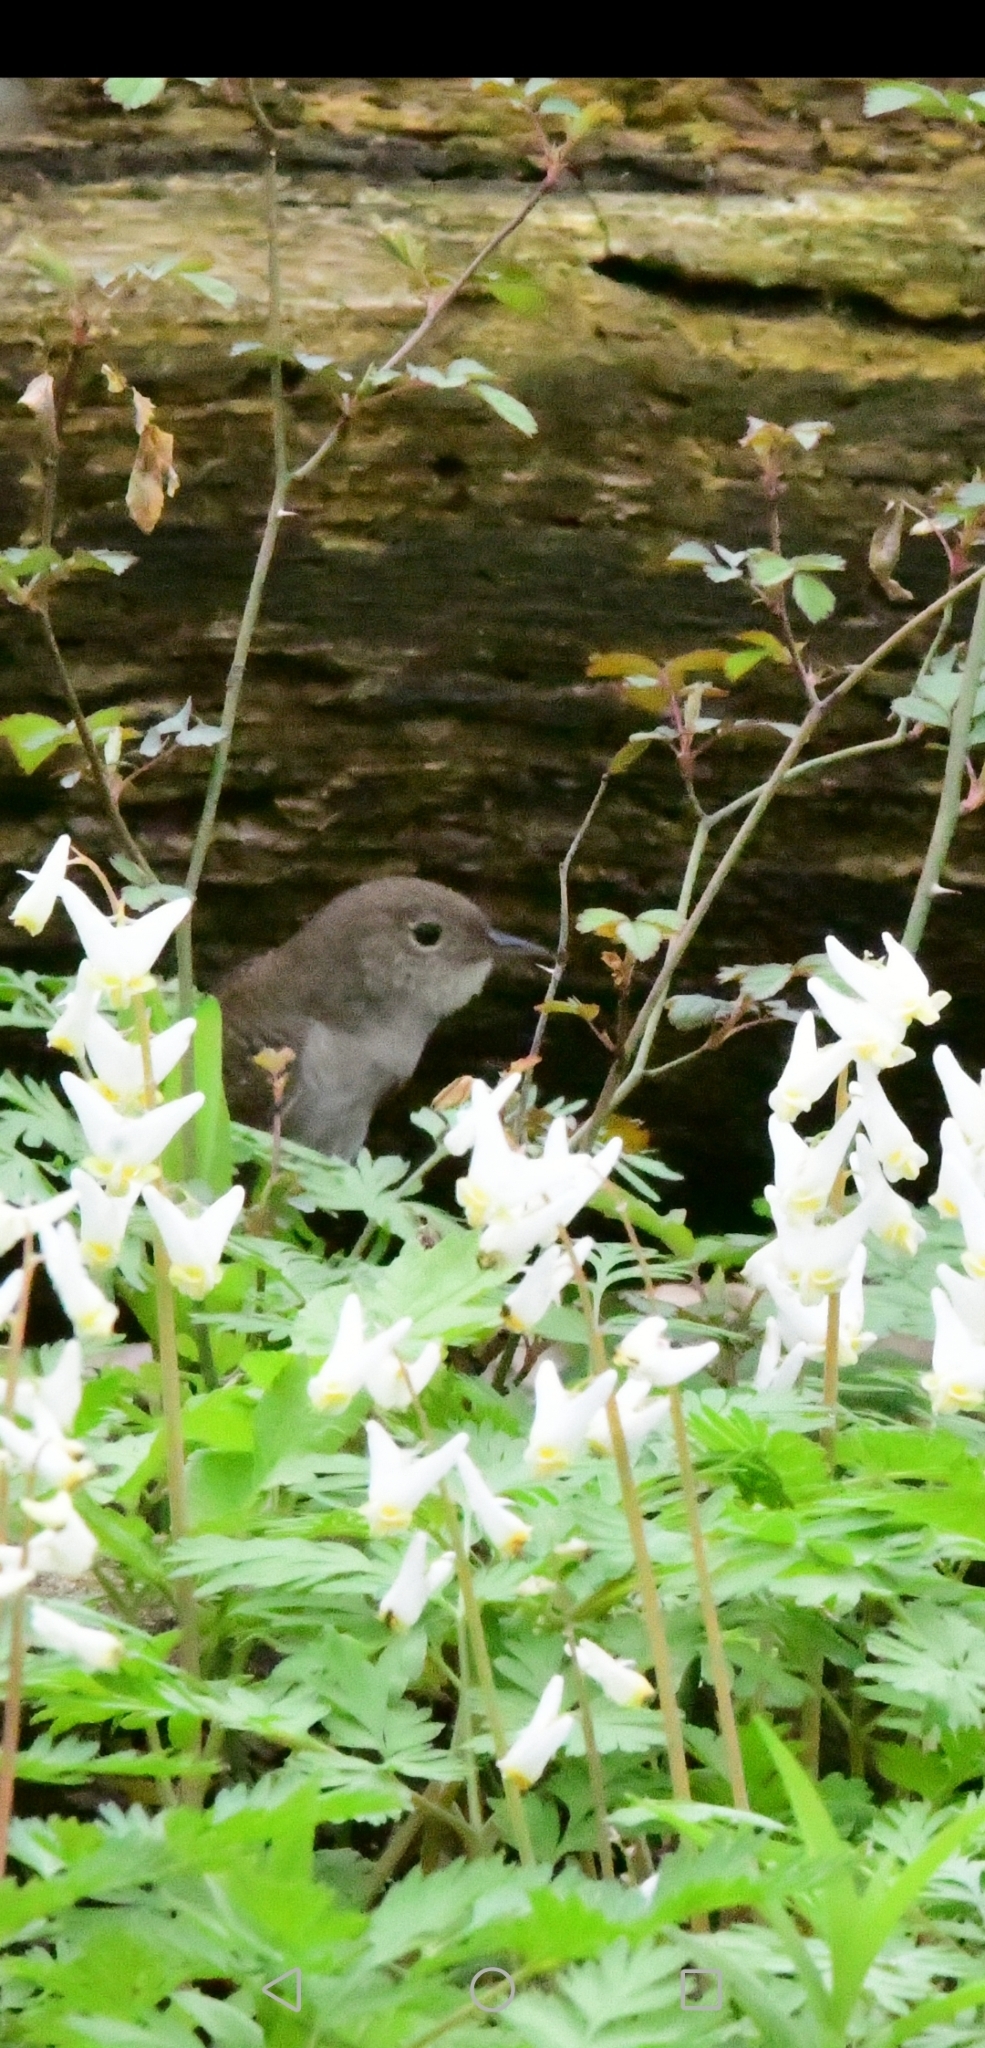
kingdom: Animalia
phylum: Chordata
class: Aves
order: Passeriformes
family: Troglodytidae
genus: Troglodytes
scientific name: Troglodytes aedon
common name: House wren
